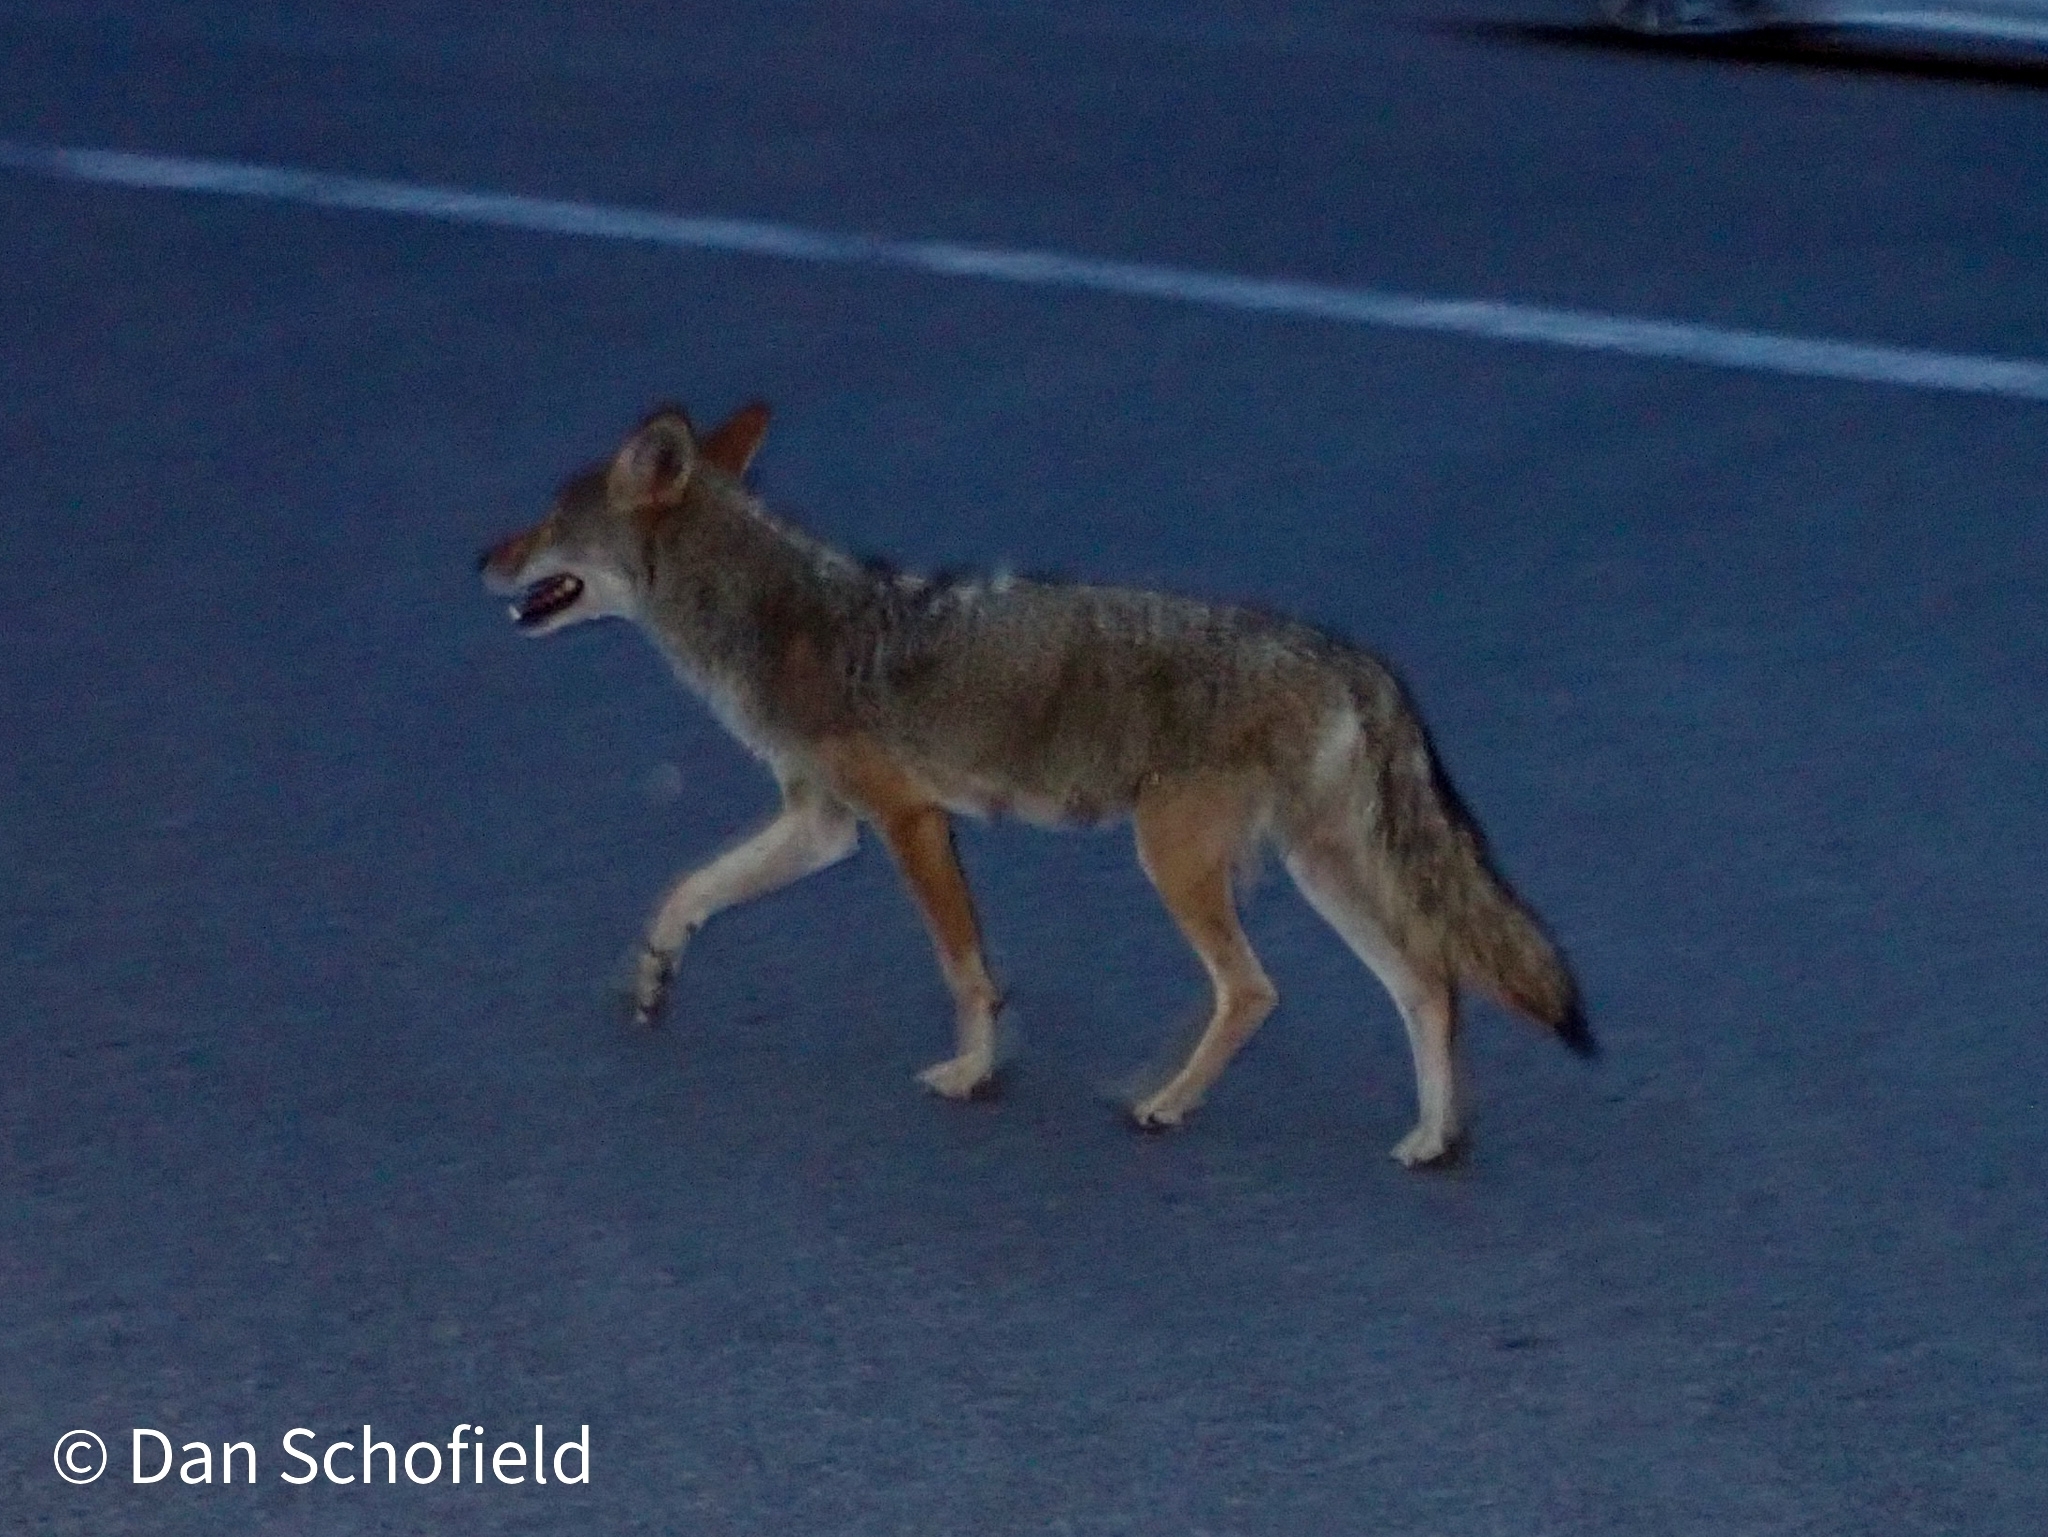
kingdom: Animalia
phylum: Chordata
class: Mammalia
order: Carnivora
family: Canidae
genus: Canis
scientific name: Canis latrans
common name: Coyote
